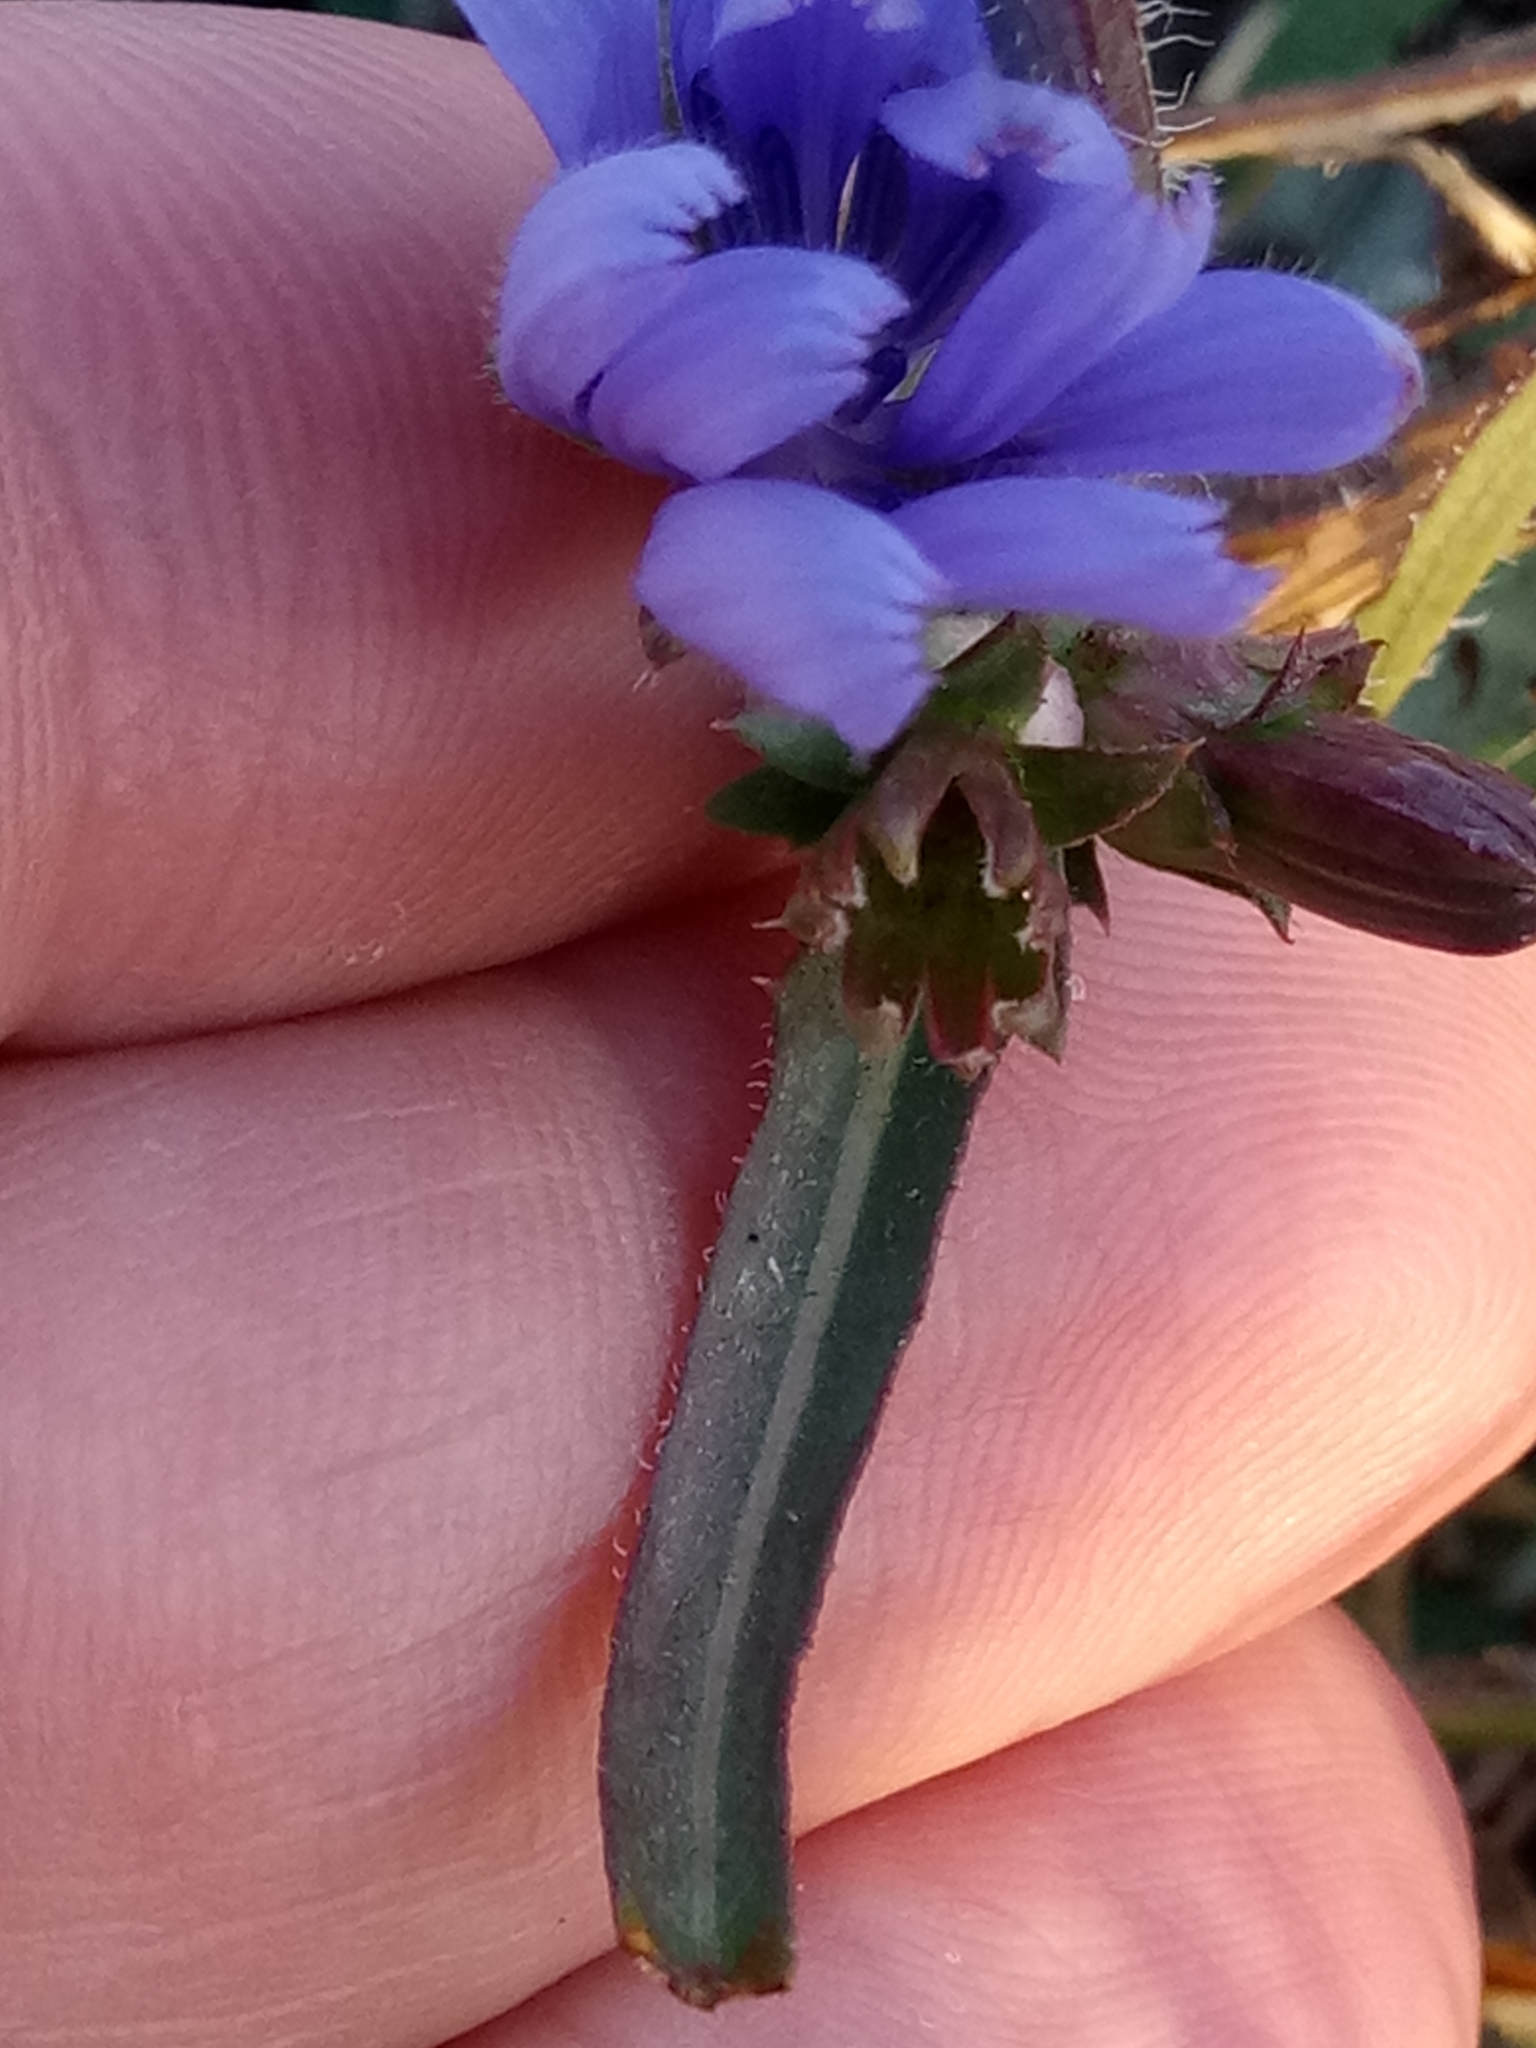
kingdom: Plantae
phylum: Tracheophyta
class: Magnoliopsida
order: Asterales
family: Asteraceae
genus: Cichorium
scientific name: Cichorium intybus
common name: Chicory
